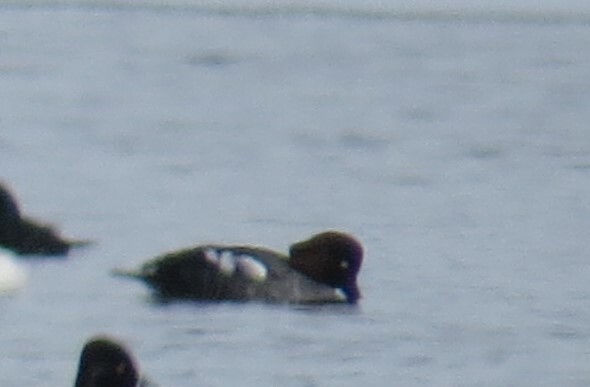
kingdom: Animalia
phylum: Chordata
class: Aves
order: Anseriformes
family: Anatidae
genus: Bucephala
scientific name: Bucephala clangula
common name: Common goldeneye
